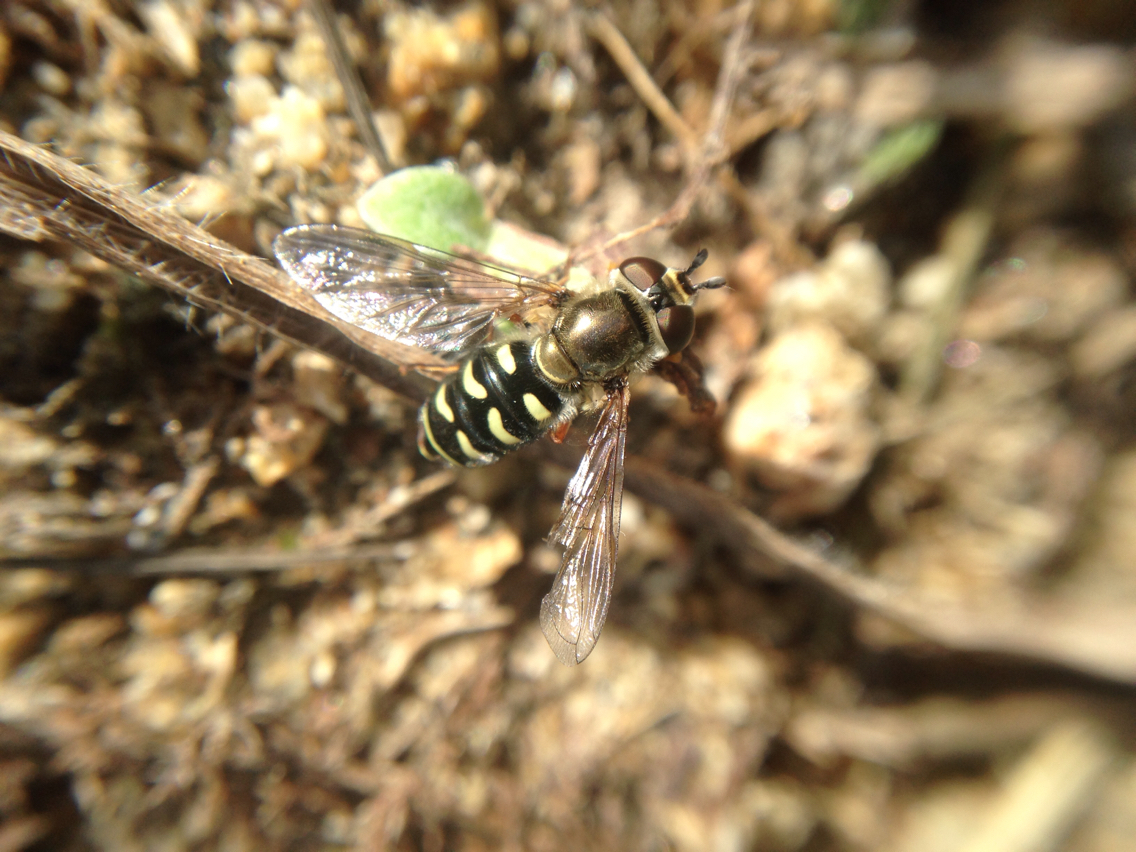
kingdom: Animalia
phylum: Arthropoda
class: Insecta
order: Diptera
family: Syrphidae
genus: Eupeodes
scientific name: Eupeodes volucris
